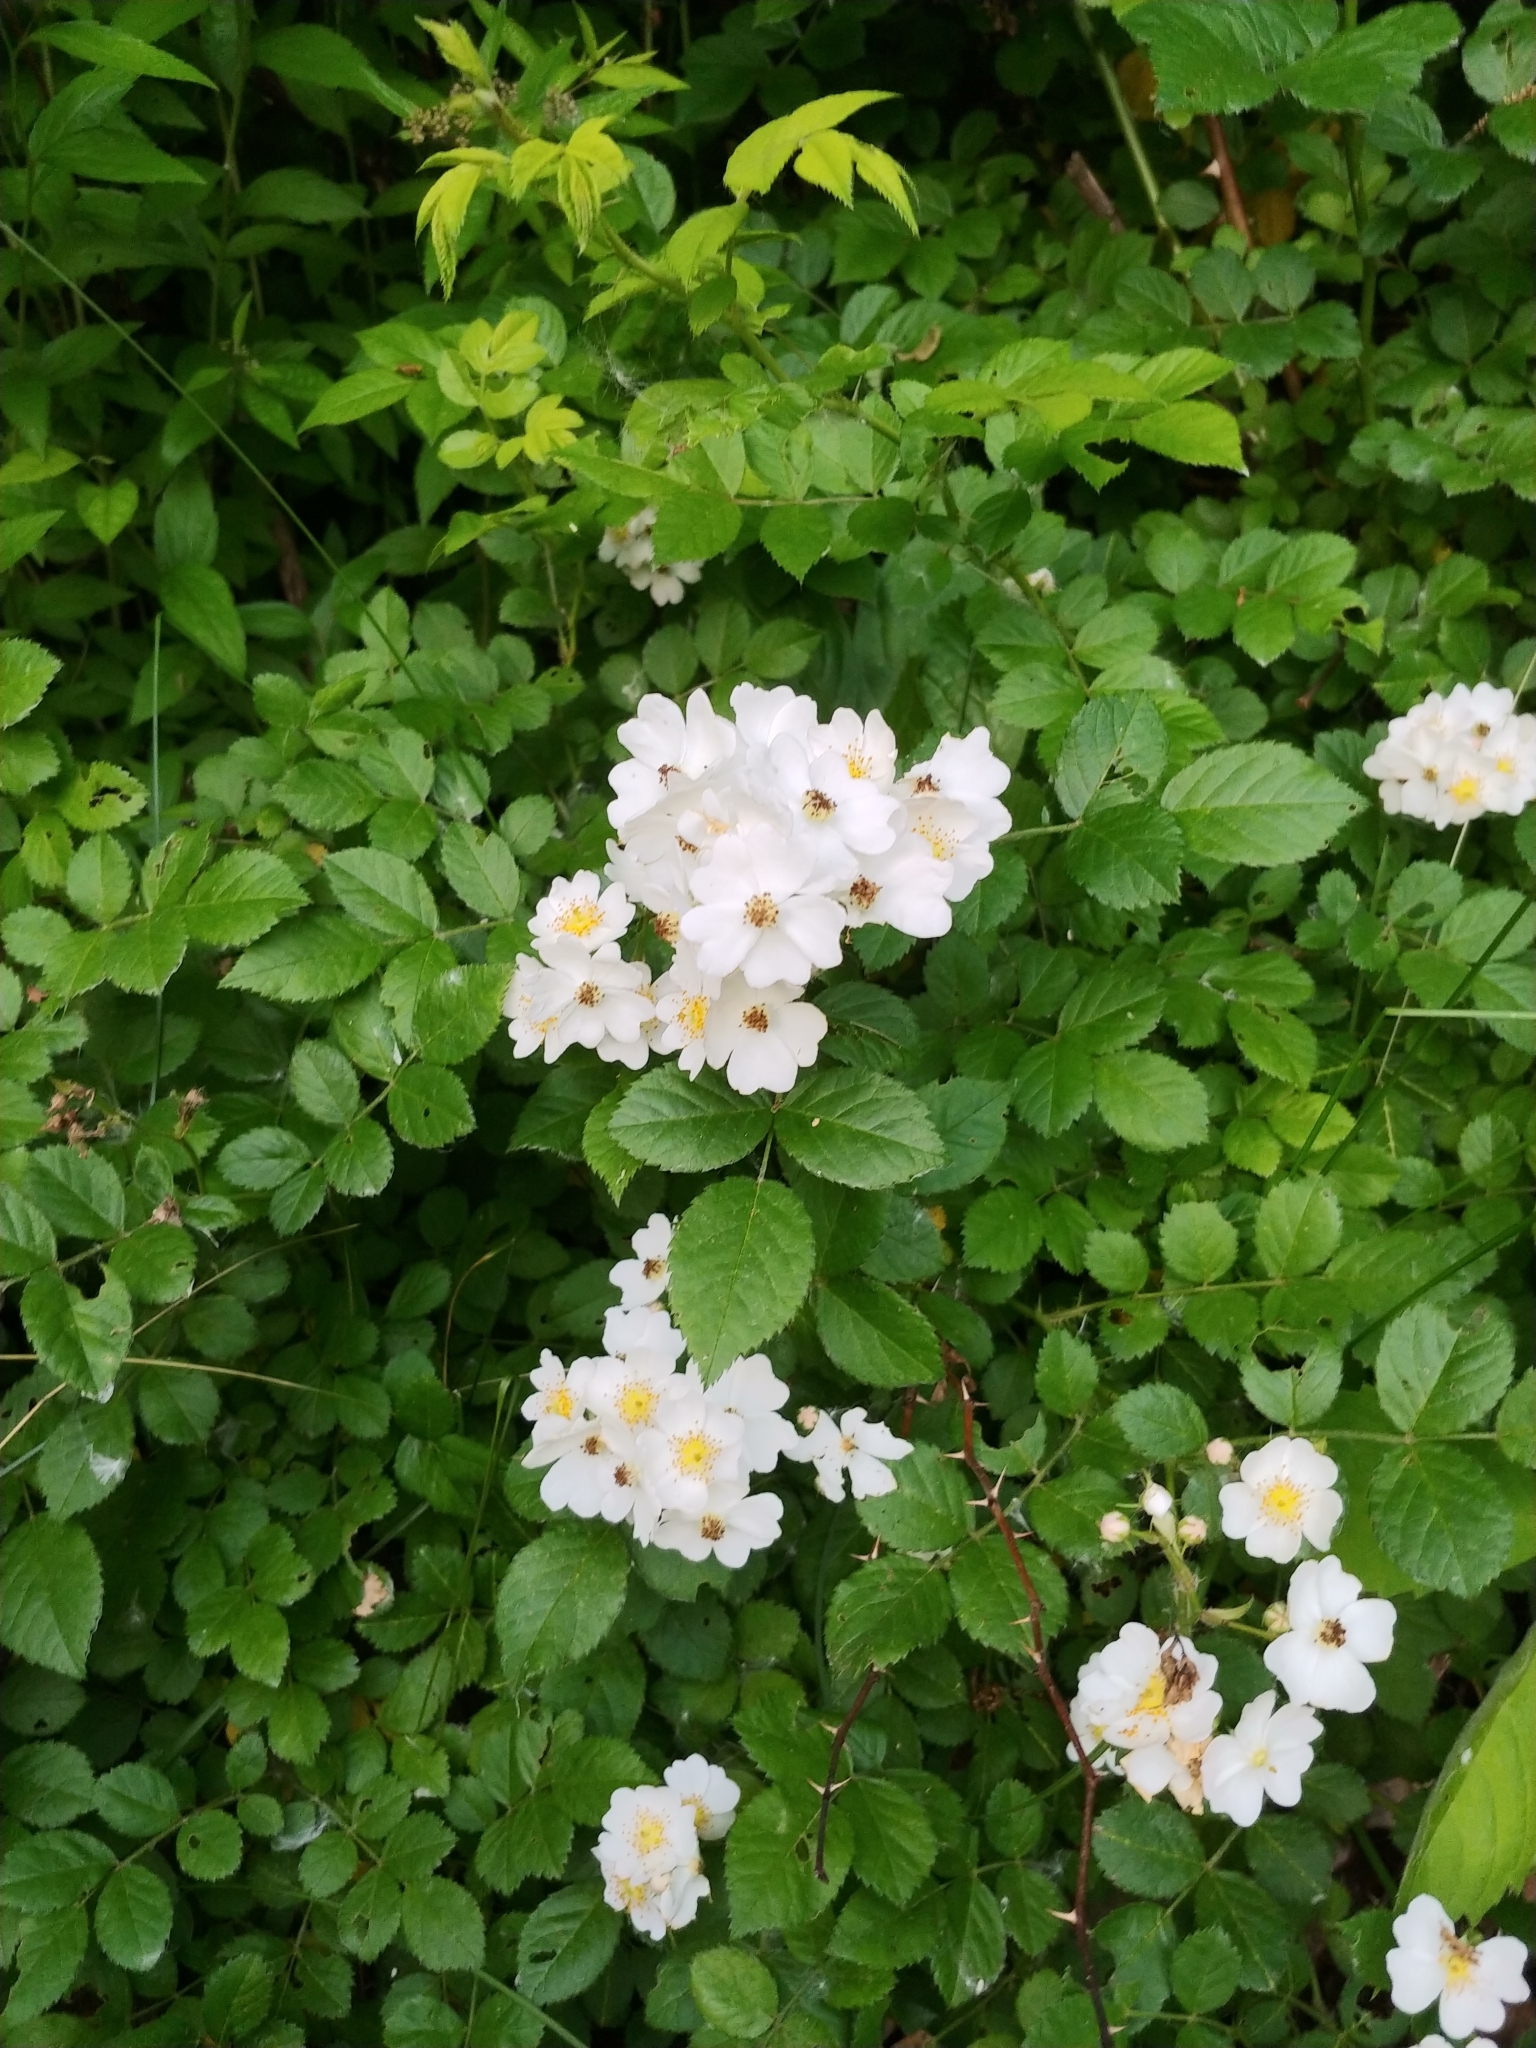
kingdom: Plantae
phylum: Tracheophyta
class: Magnoliopsida
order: Rosales
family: Rosaceae
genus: Rosa
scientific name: Rosa multiflora
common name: Multiflora rose
